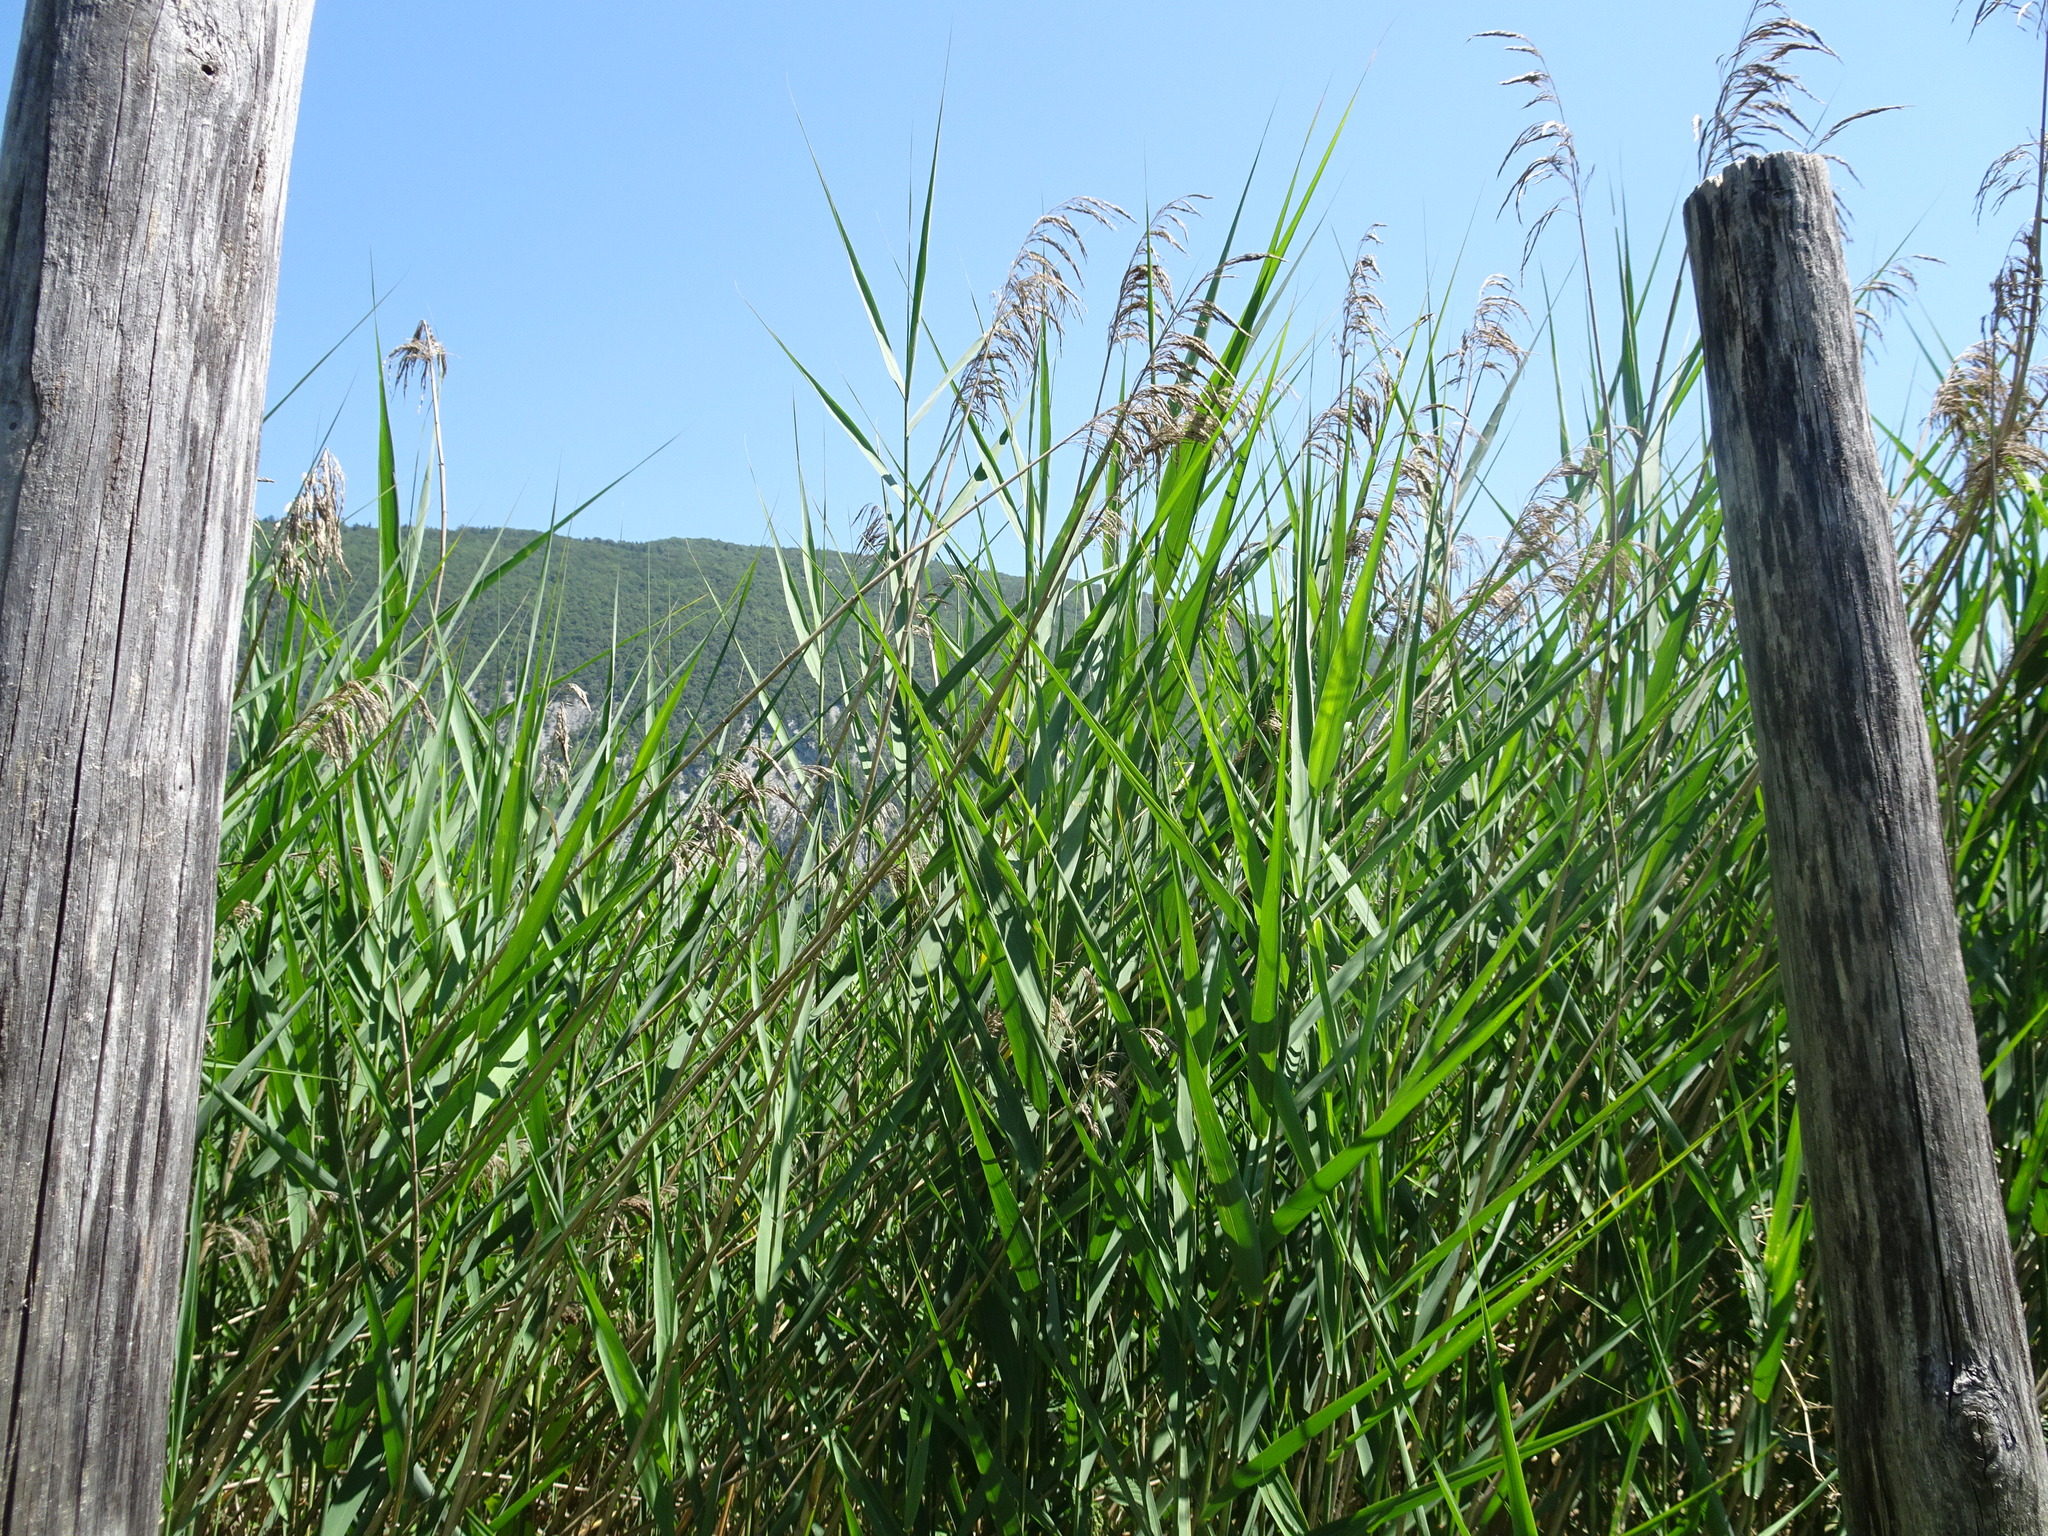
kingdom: Plantae
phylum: Tracheophyta
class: Liliopsida
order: Poales
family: Poaceae
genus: Phragmites
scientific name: Phragmites australis
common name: Common reed
